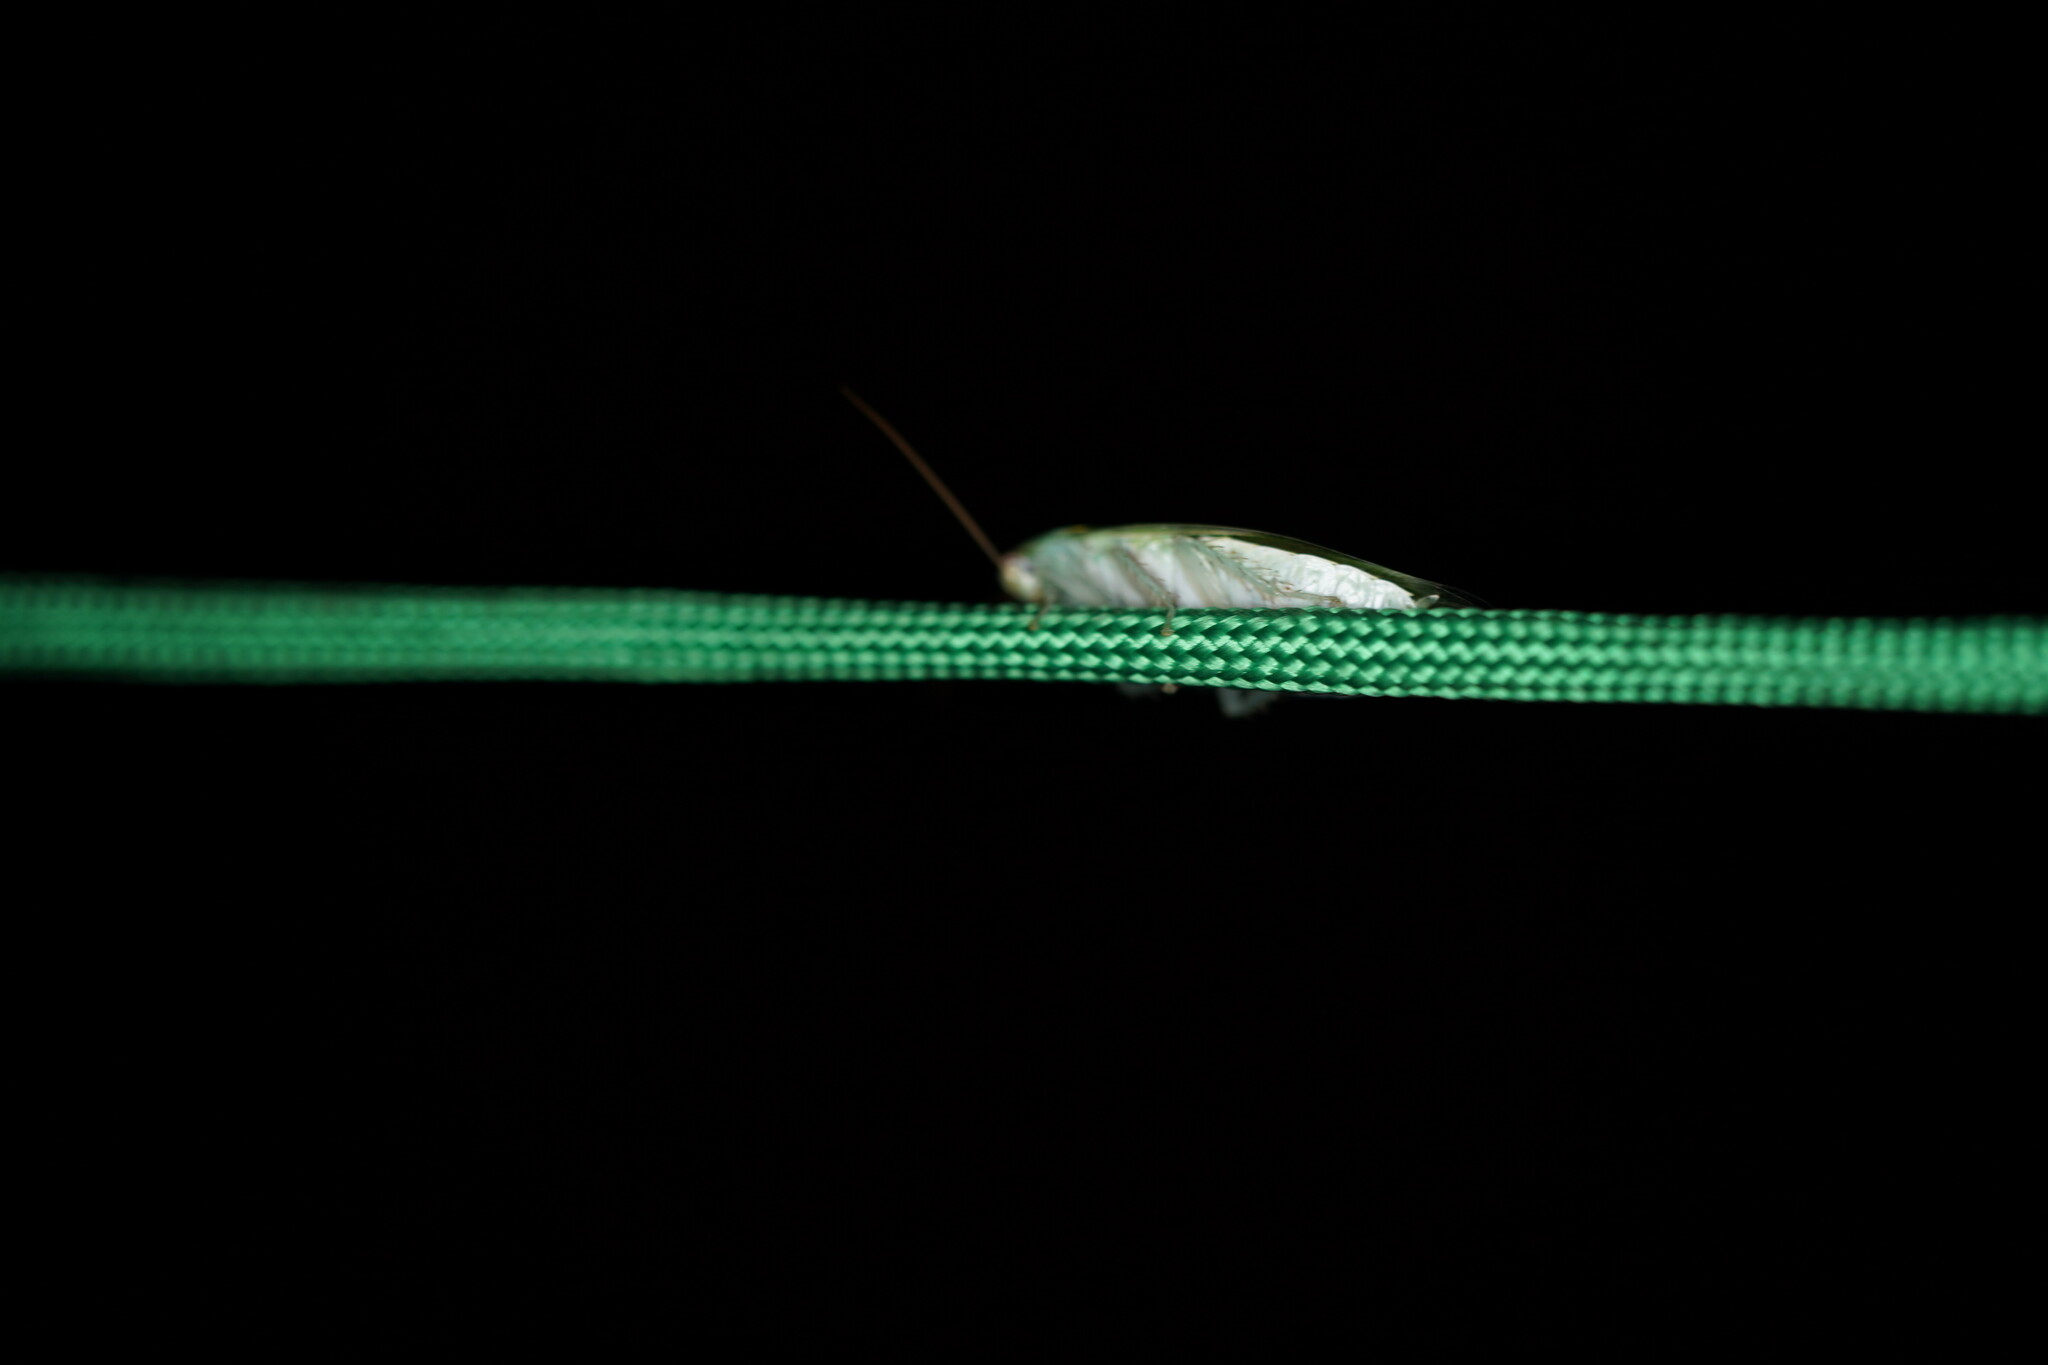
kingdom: Animalia
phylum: Arthropoda
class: Insecta
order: Blattodea
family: Blaberidae
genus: Panchlora
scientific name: Panchlora nivea
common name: Cuban cockroach
